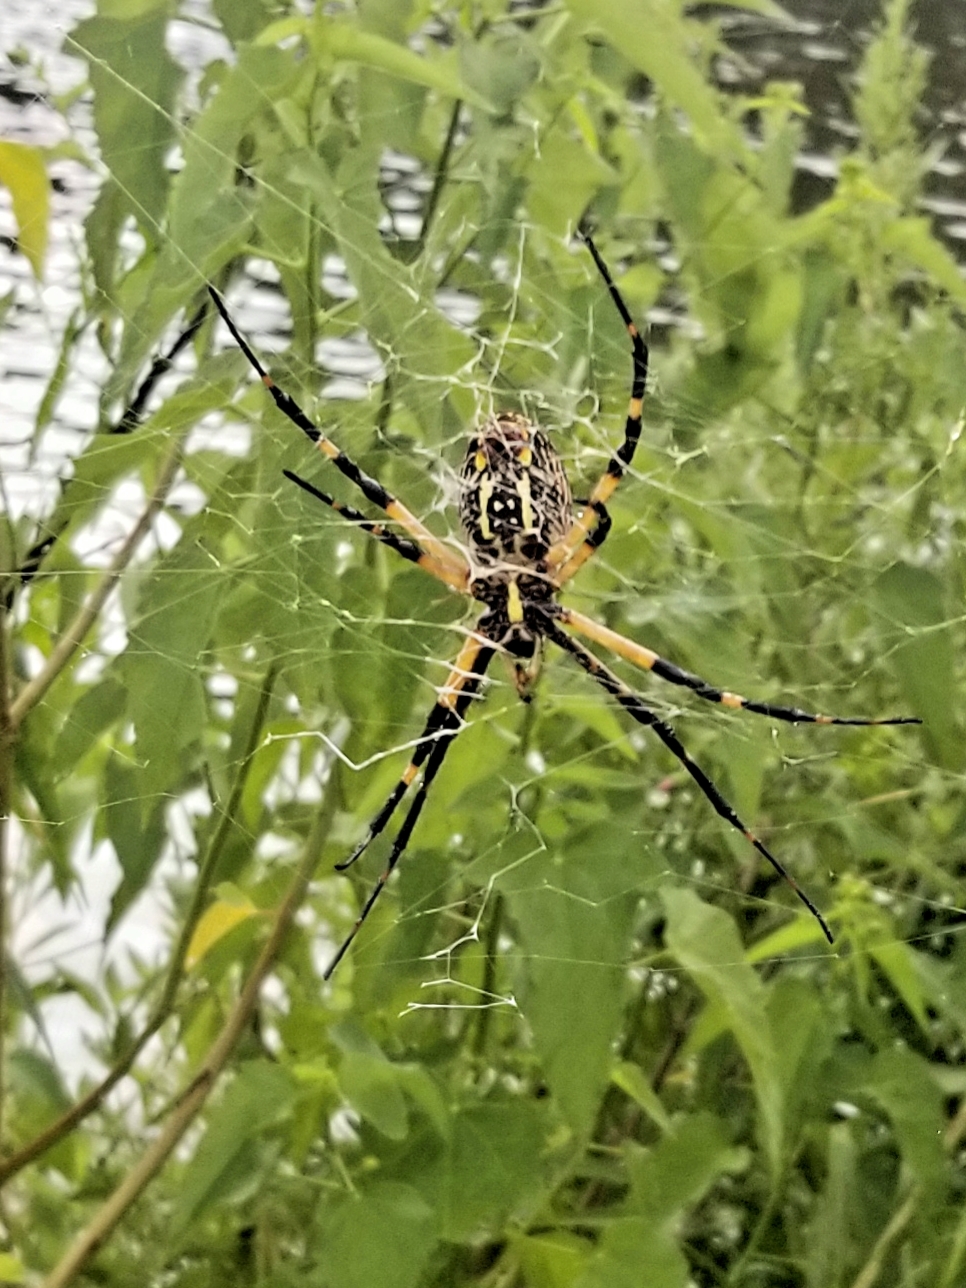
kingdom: Animalia
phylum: Arthropoda
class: Arachnida
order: Araneae
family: Araneidae
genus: Argiope
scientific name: Argiope aurantia
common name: Orb weavers
